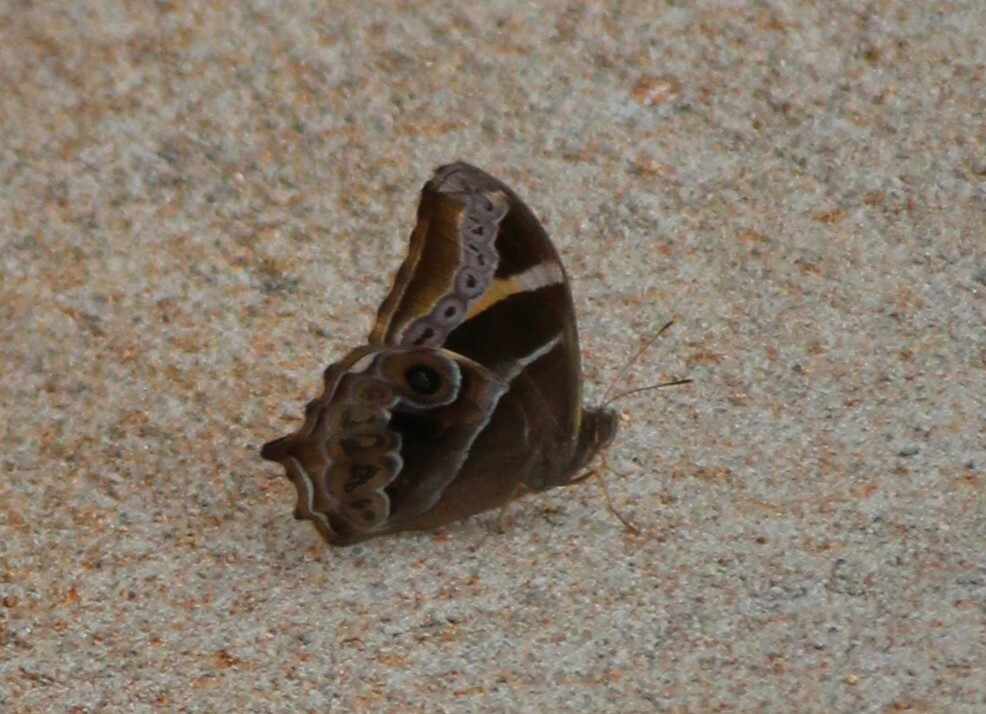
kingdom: Animalia
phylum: Arthropoda
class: Insecta
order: Lepidoptera
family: Nymphalidae
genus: Lethe
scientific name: Lethe europa
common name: Bamboo treebrown
